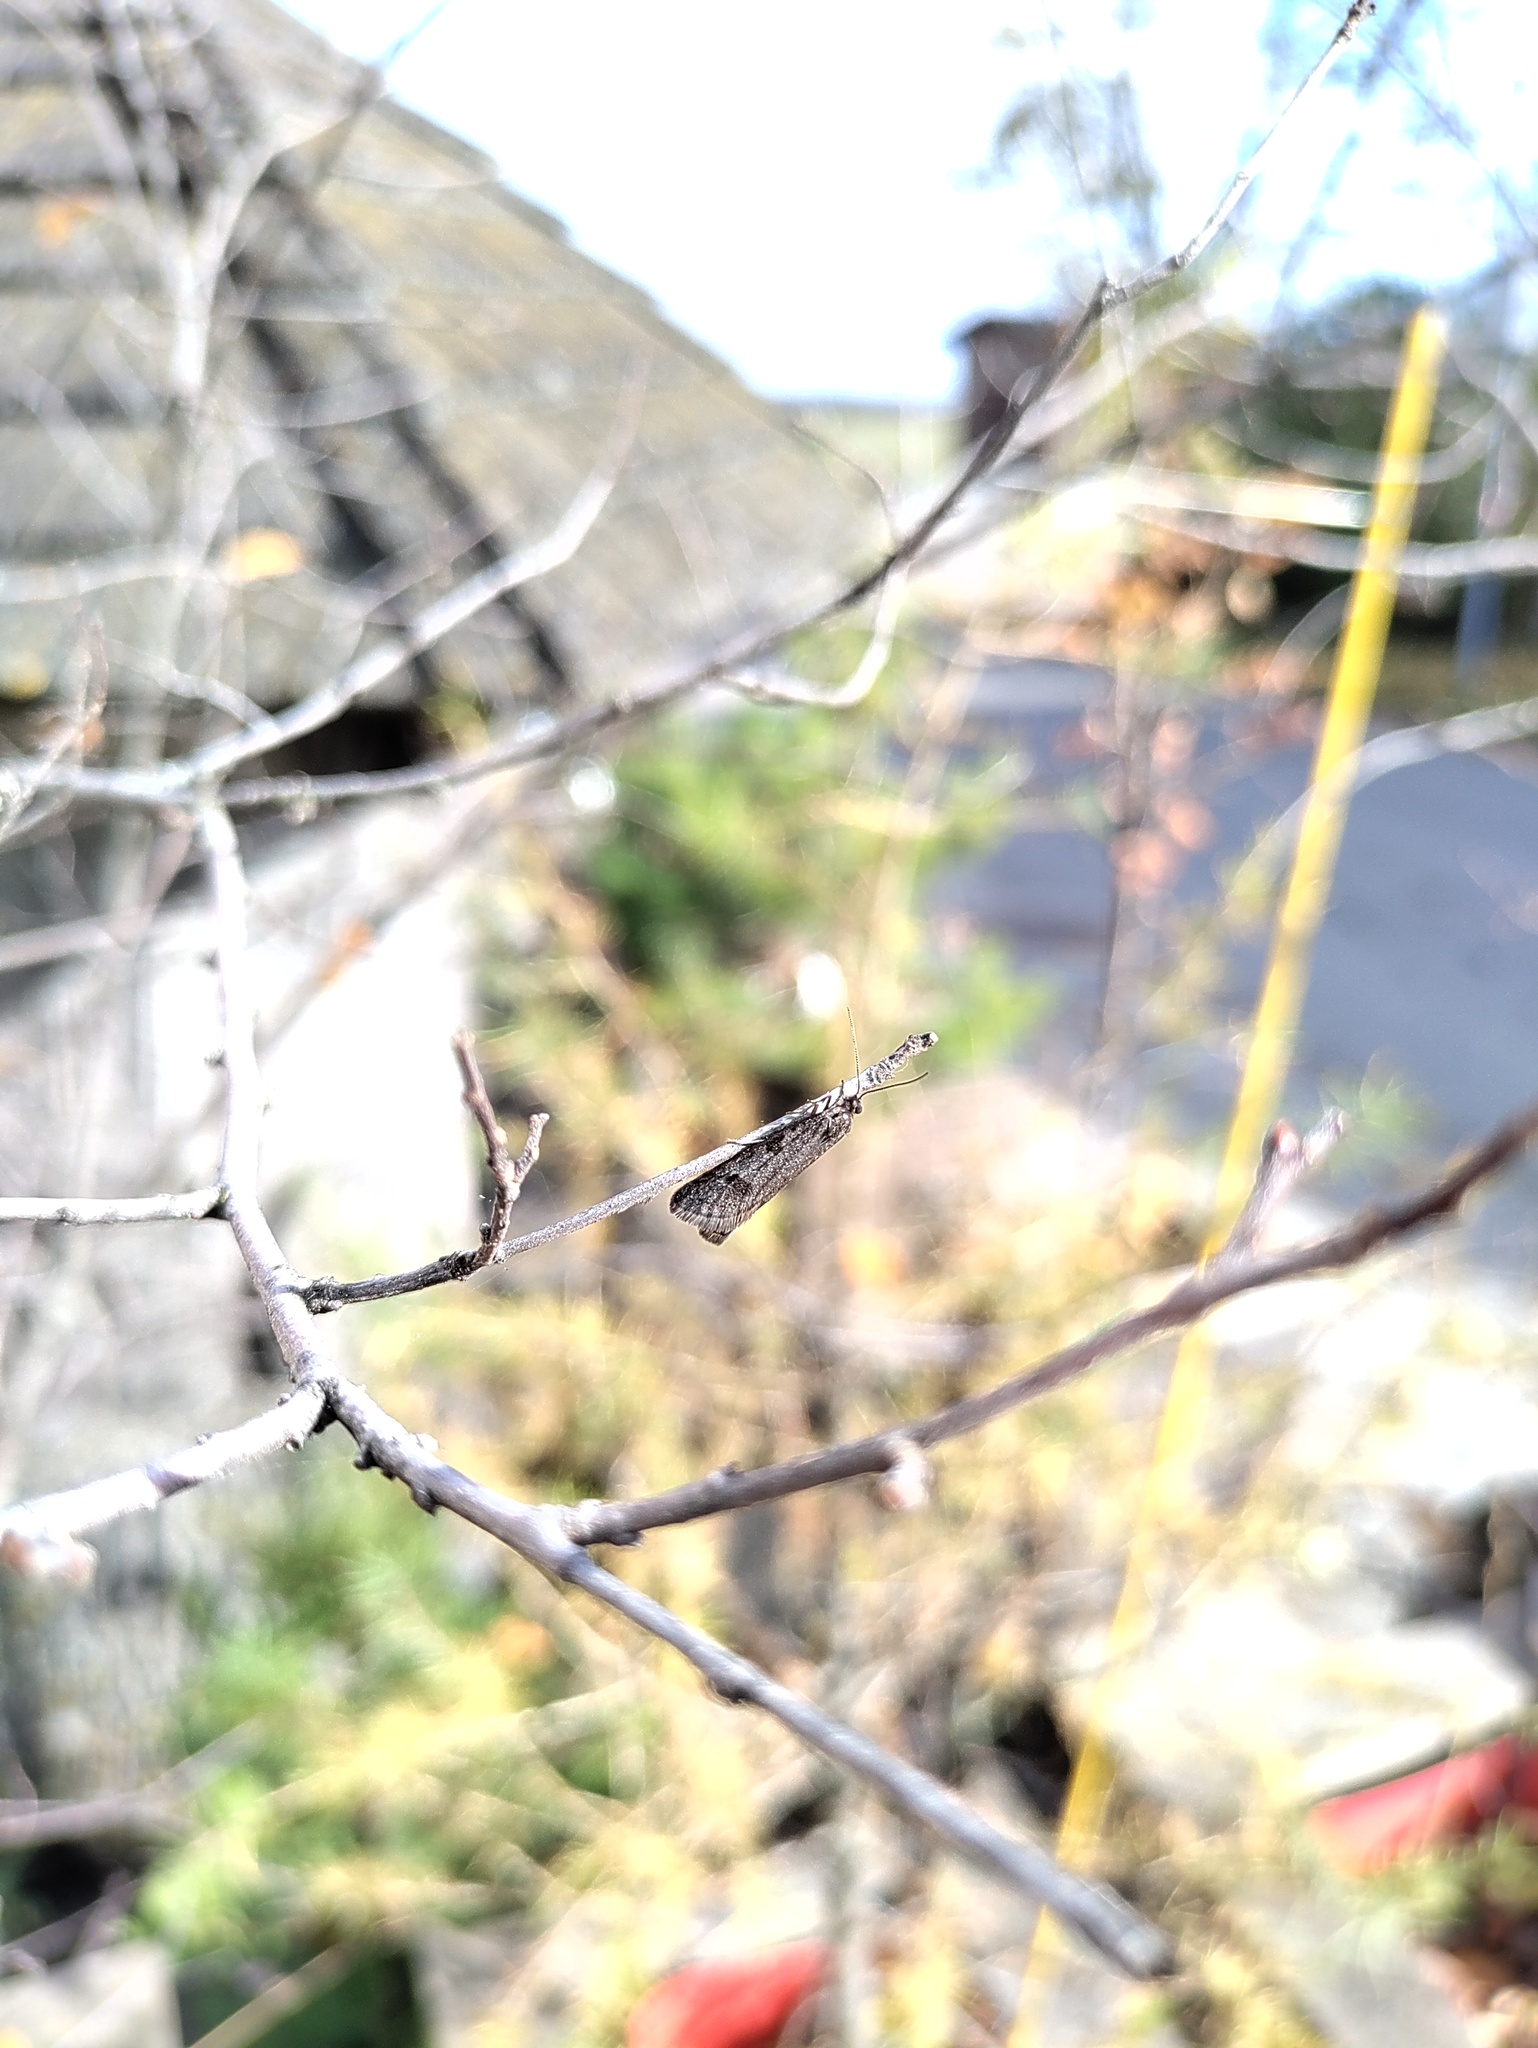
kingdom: Animalia
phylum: Arthropoda
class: Insecta
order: Lepidoptera
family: Tortricidae
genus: Exapate
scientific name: Exapate congelatella
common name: Autumnal shade
